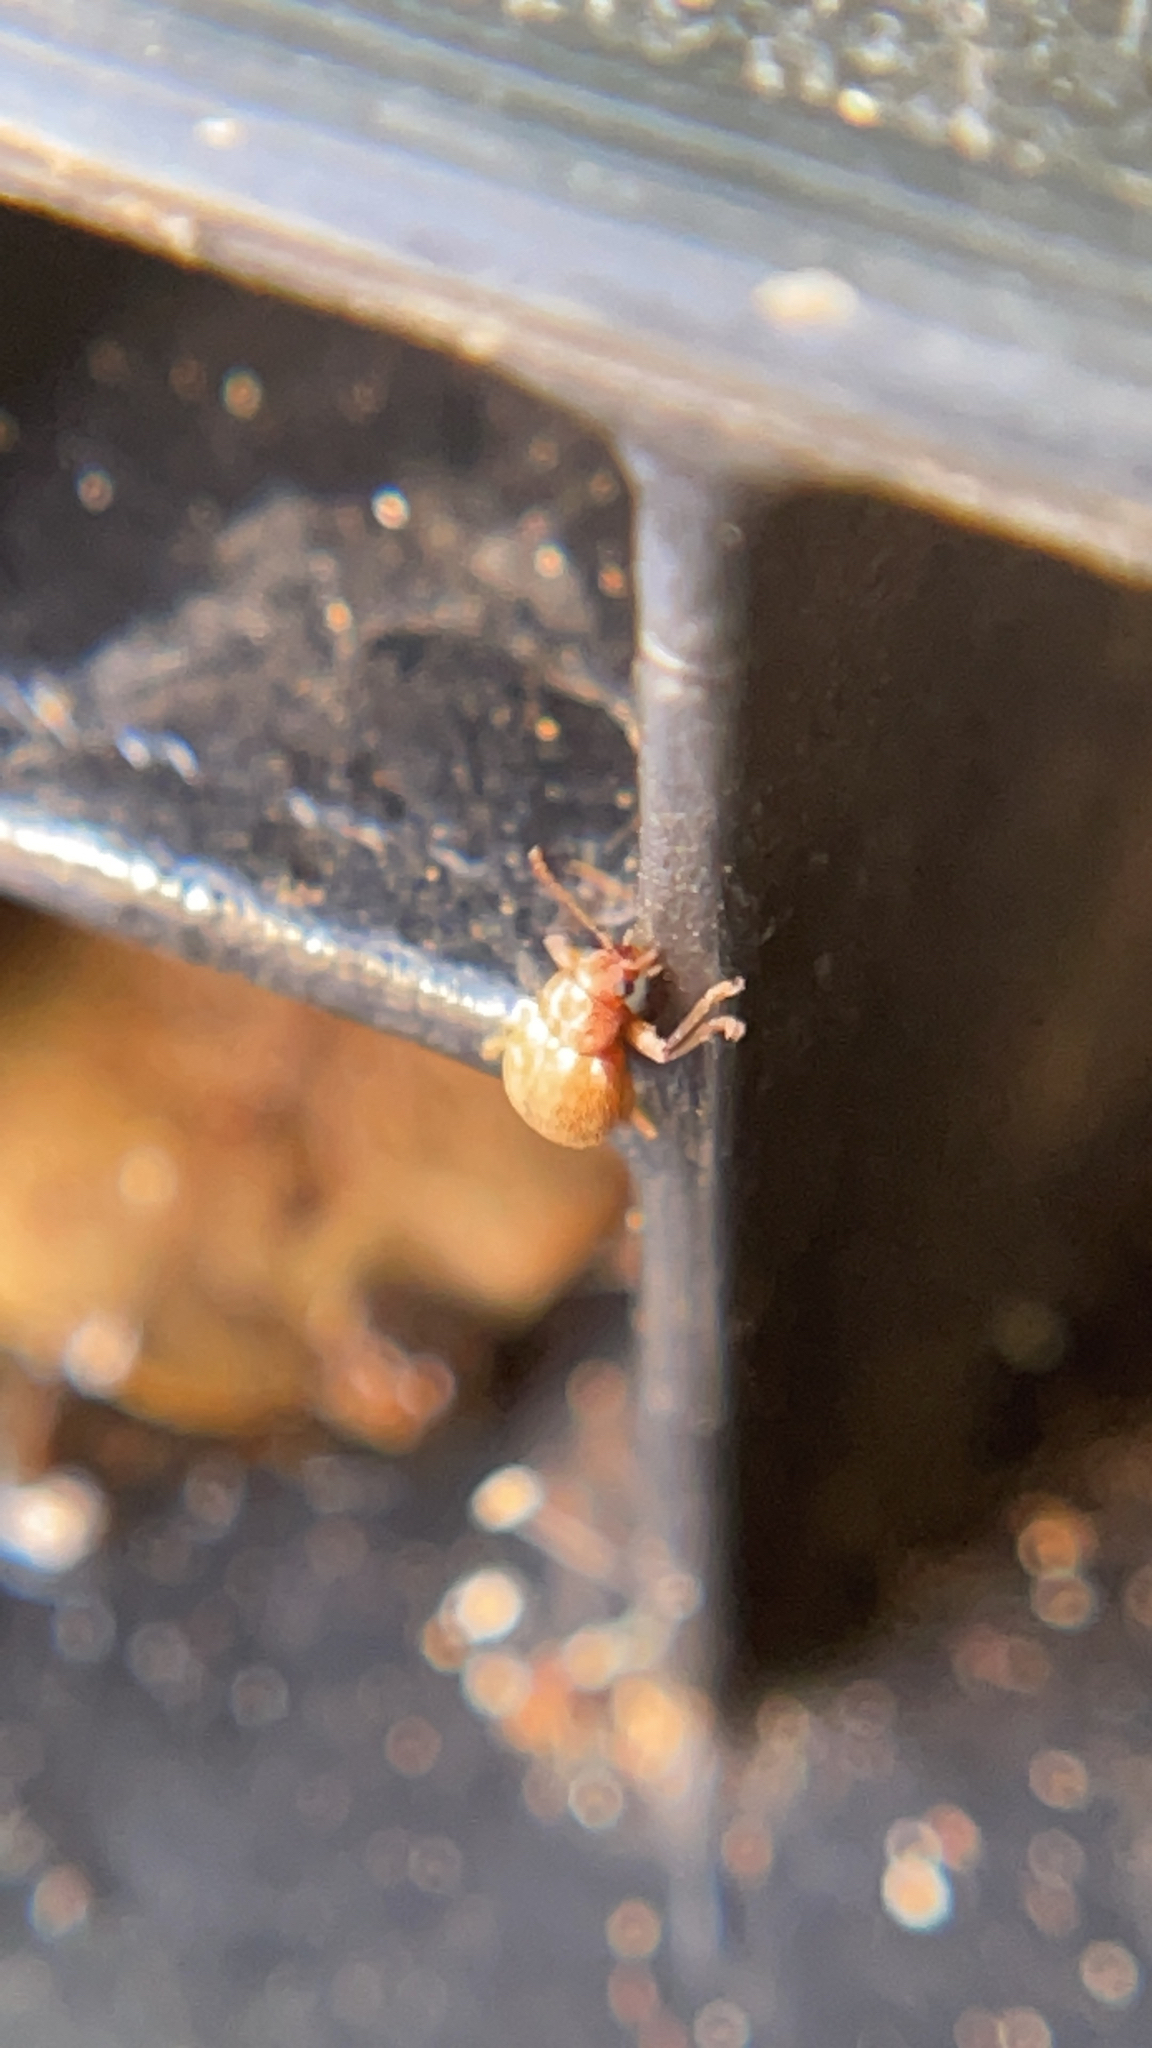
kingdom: Animalia
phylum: Arthropoda
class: Insecta
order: Coleoptera
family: Chrysomelidae
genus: Demotina
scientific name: Demotina modesta
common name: Leaf beetle
